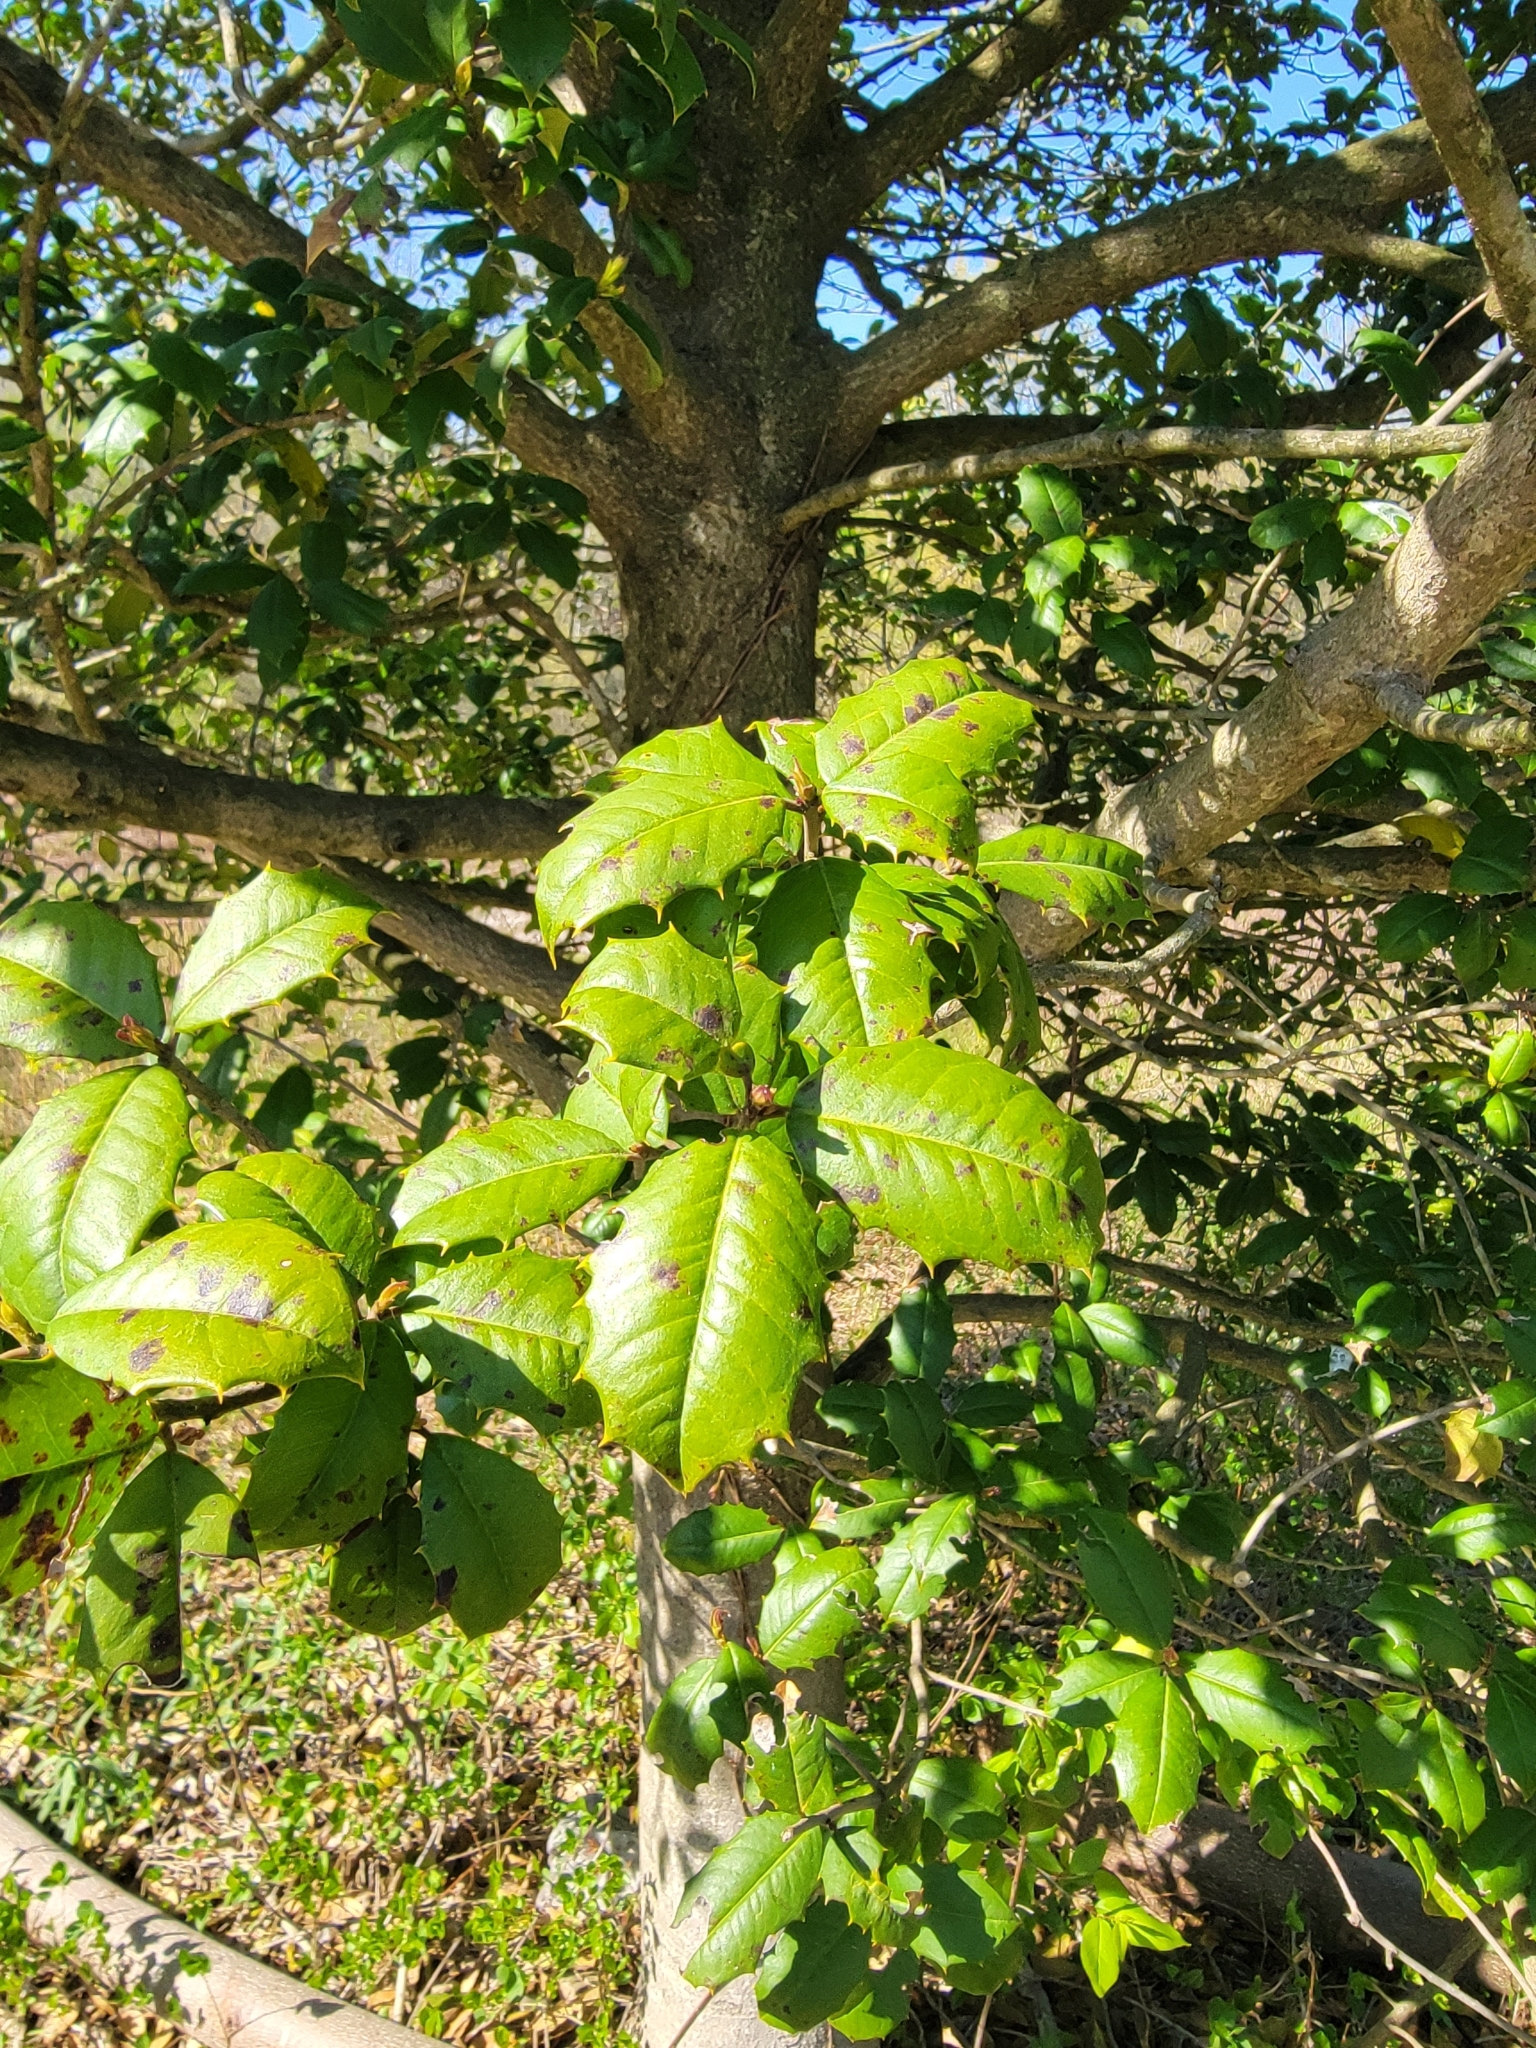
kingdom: Plantae
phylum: Tracheophyta
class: Magnoliopsida
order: Aquifoliales
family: Aquifoliaceae
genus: Ilex
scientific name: Ilex opaca
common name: American holly
